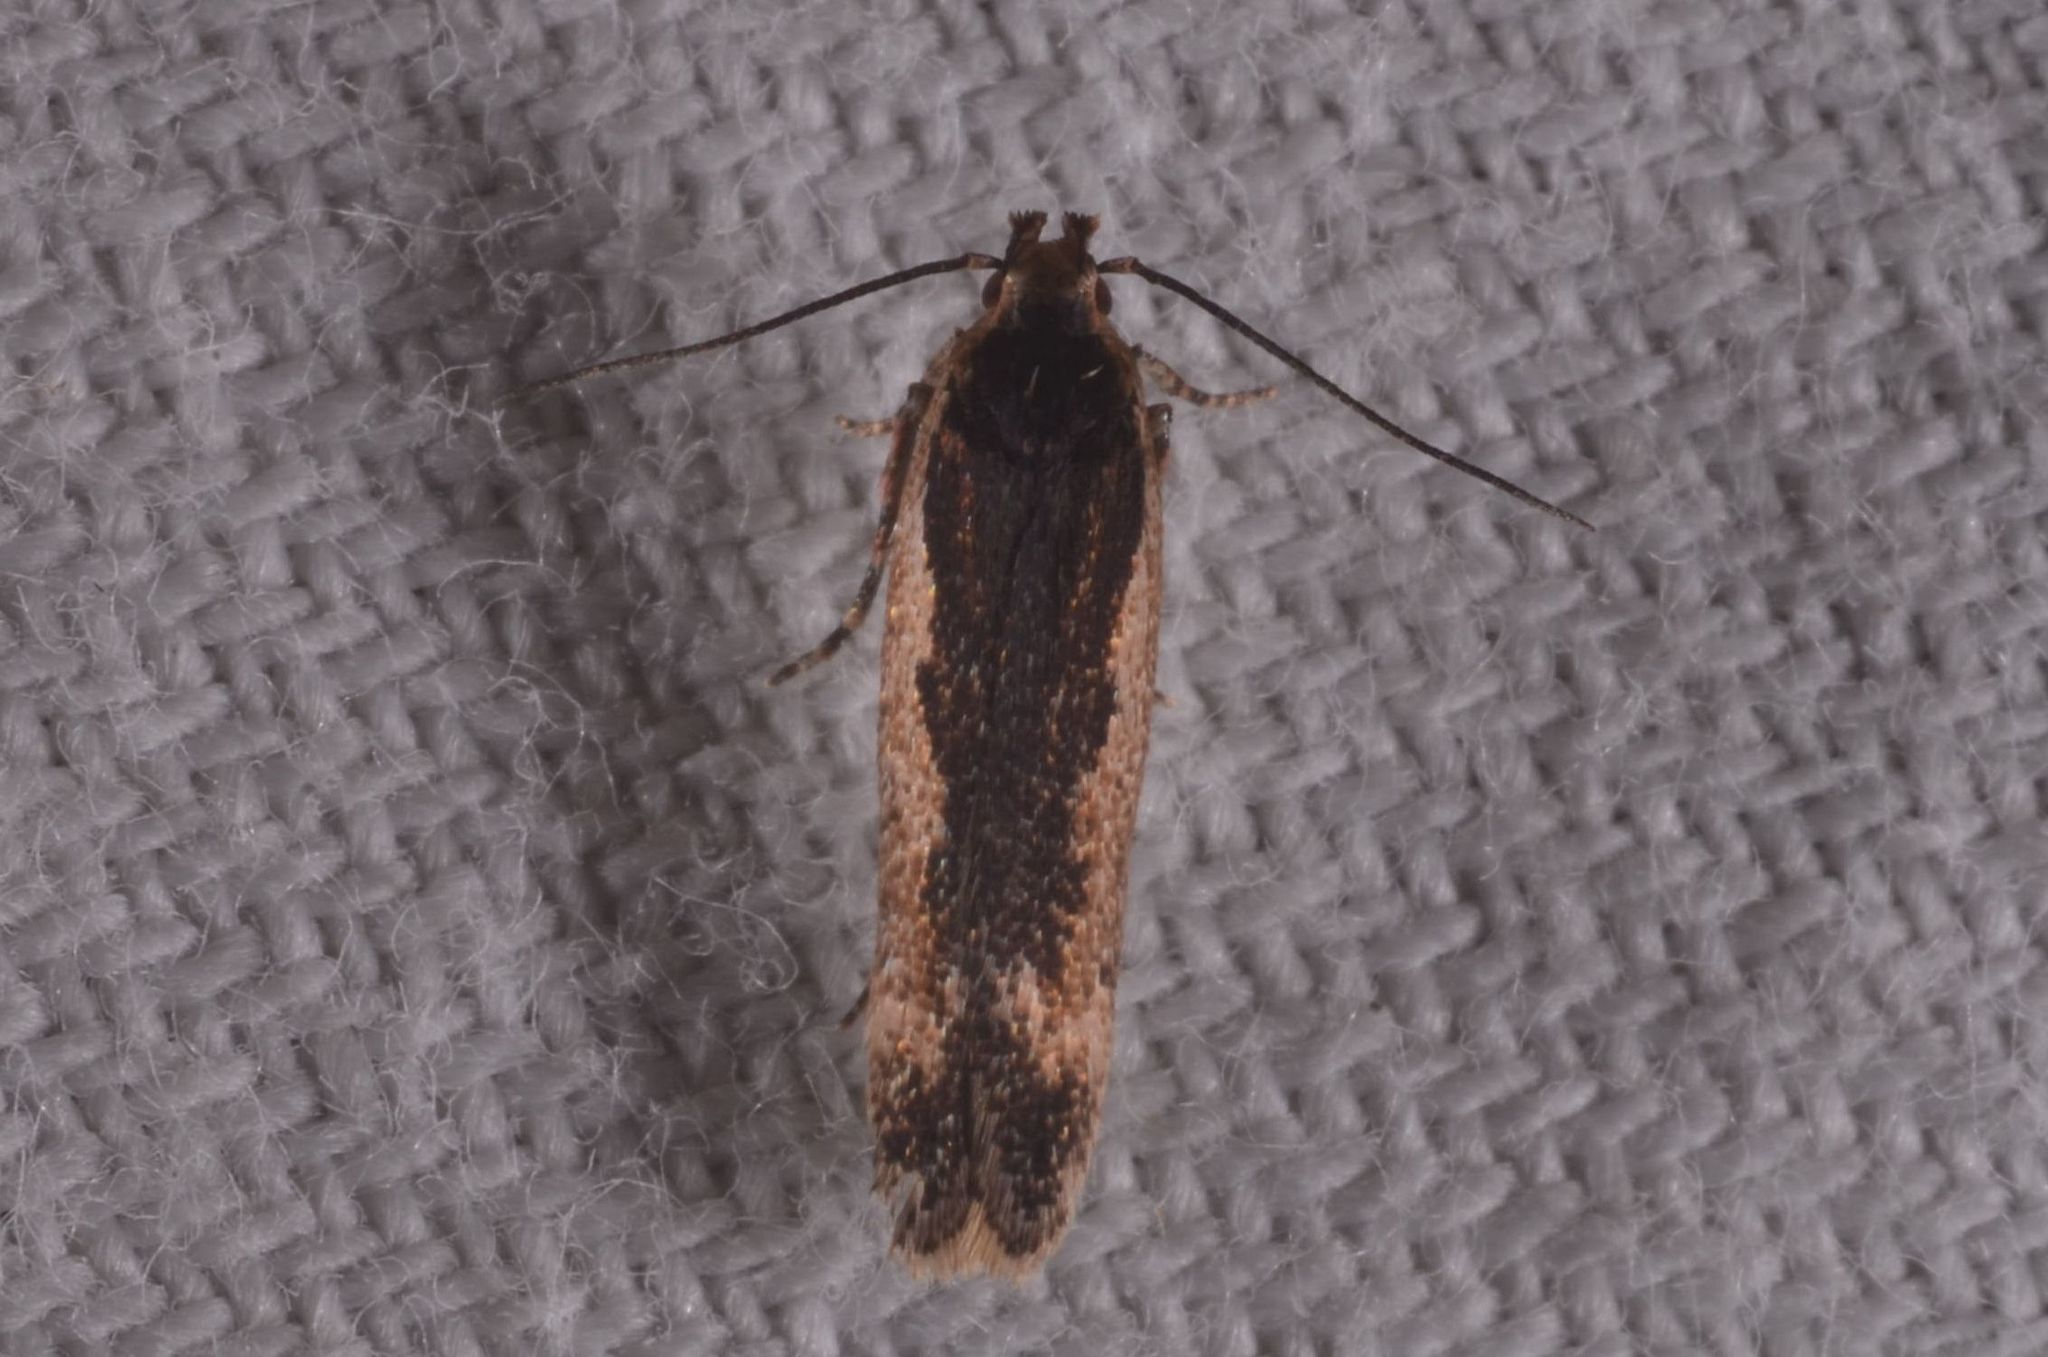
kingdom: Animalia
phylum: Arthropoda
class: Insecta
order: Lepidoptera
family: Gelechiidae
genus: Cosmardia
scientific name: Cosmardia moritzella
